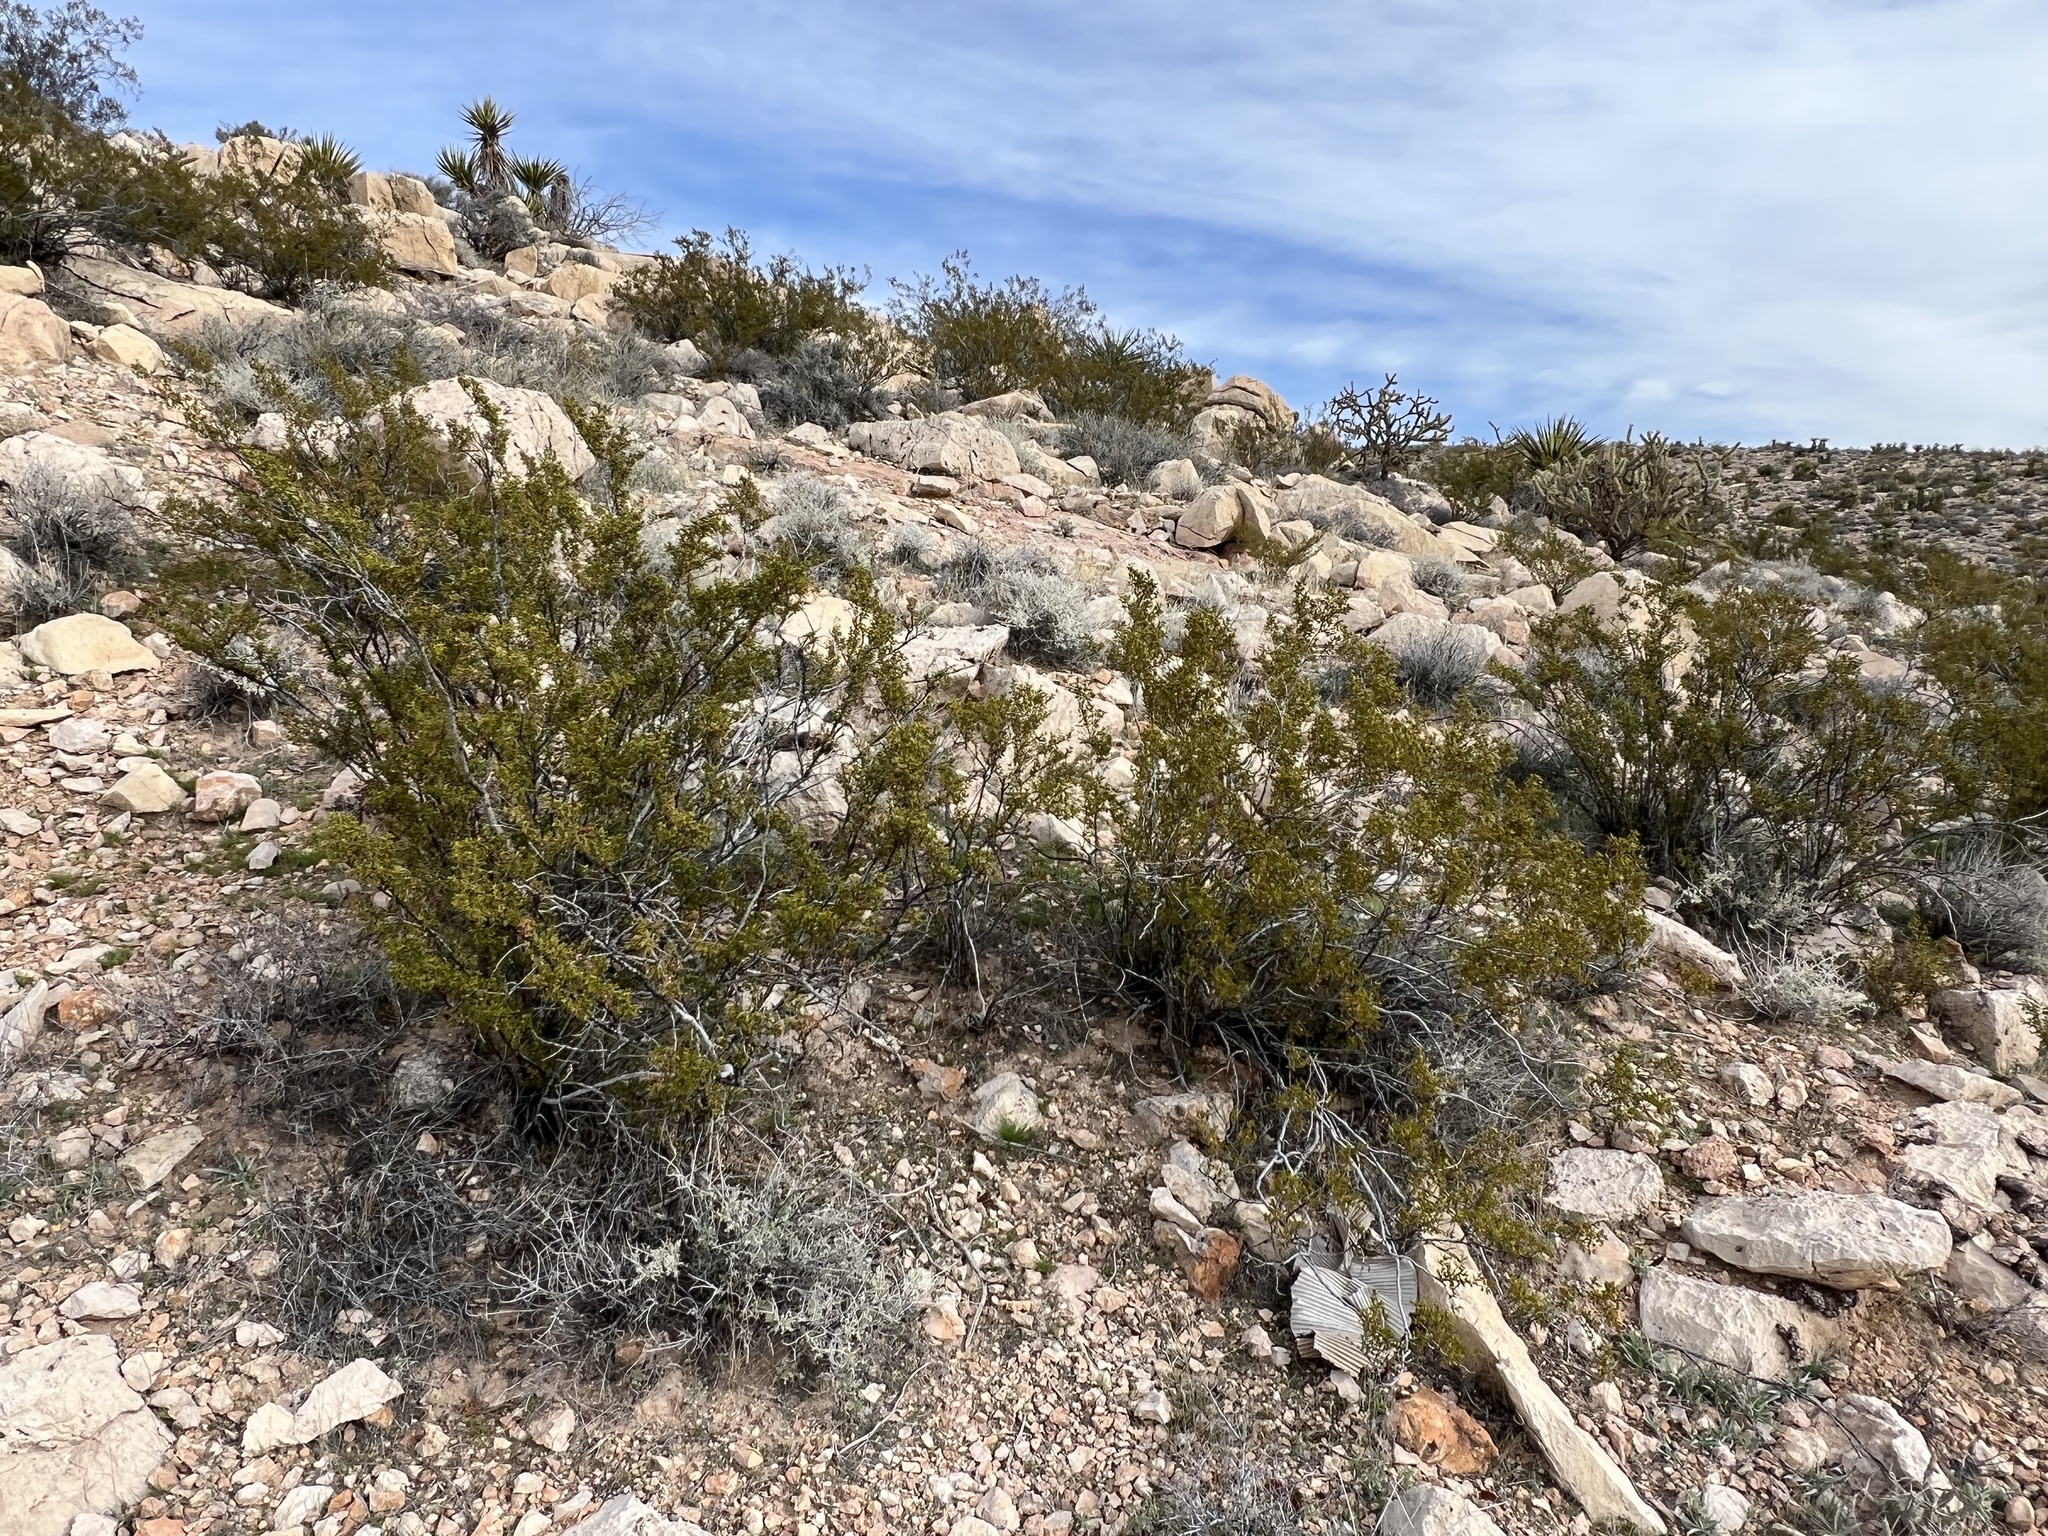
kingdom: Plantae
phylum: Tracheophyta
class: Magnoliopsida
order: Zygophyllales
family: Zygophyllaceae
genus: Larrea
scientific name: Larrea tridentata
